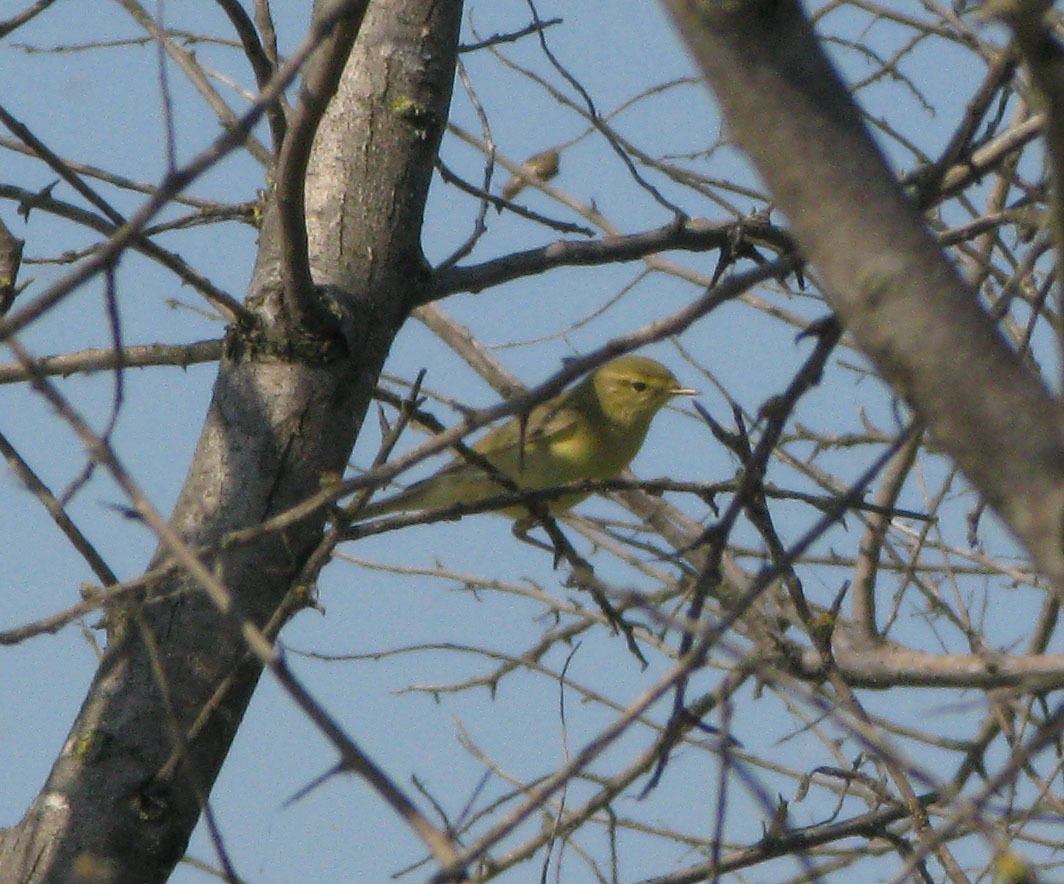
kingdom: Animalia
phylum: Chordata
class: Aves
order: Passeriformes
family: Phylloscopidae
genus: Phylloscopus
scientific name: Phylloscopus trochilus
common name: Willow warbler
